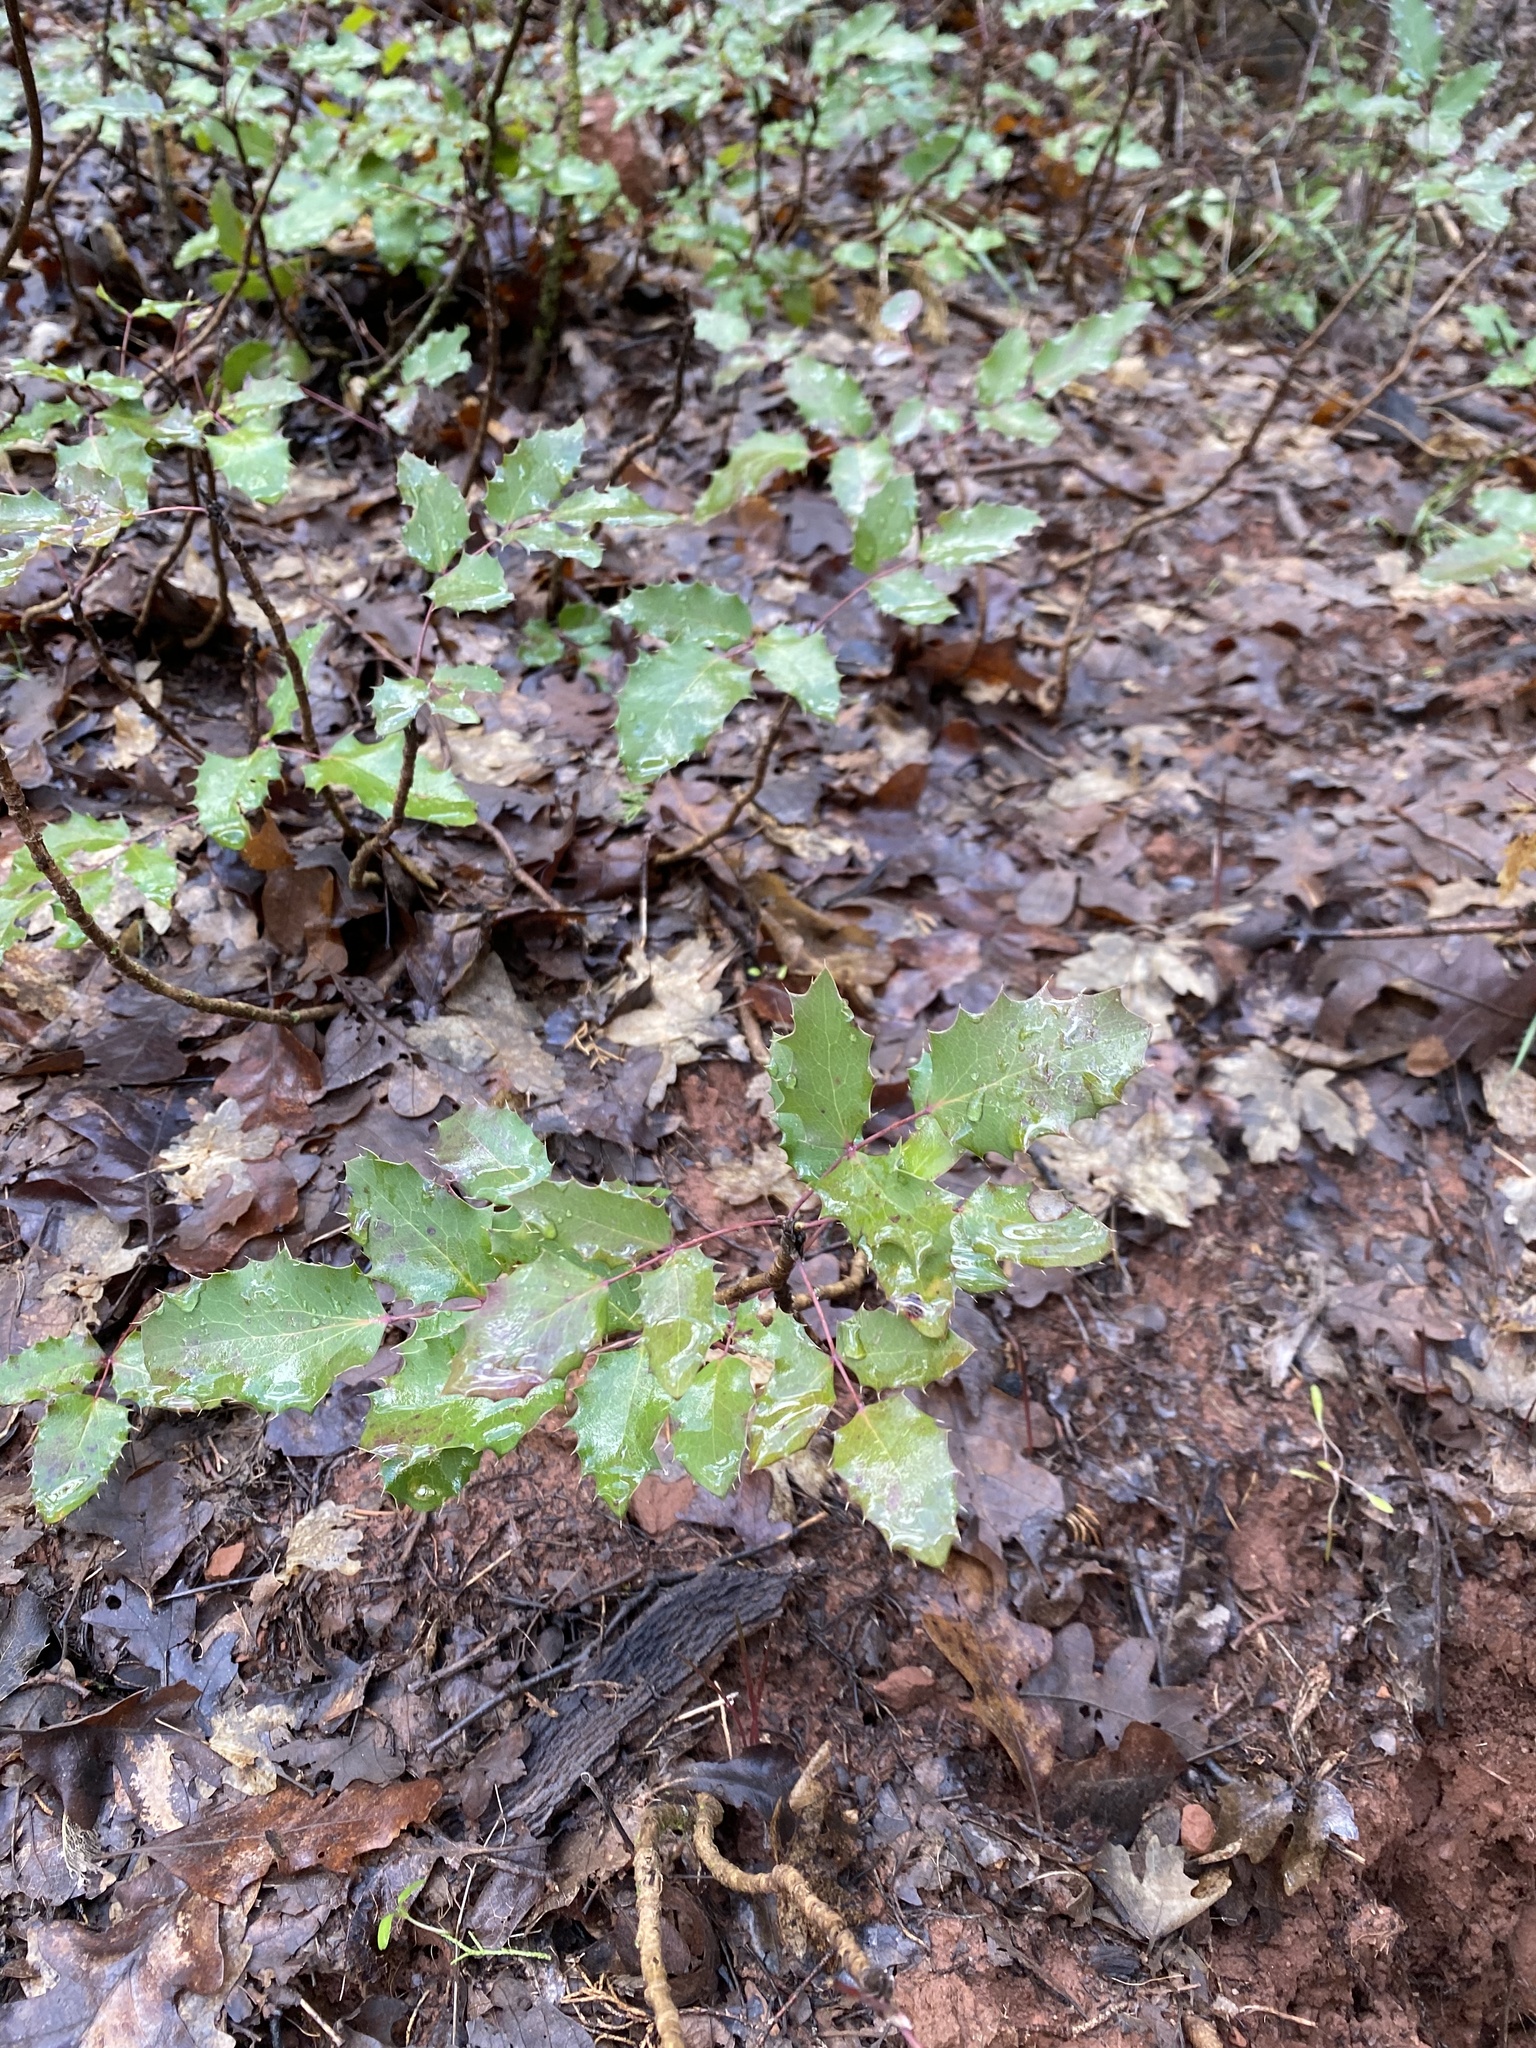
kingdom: Plantae
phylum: Tracheophyta
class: Magnoliopsida
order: Ranunculales
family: Berberidaceae
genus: Mahonia
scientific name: Mahonia repens
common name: Creeping oregon-grape
